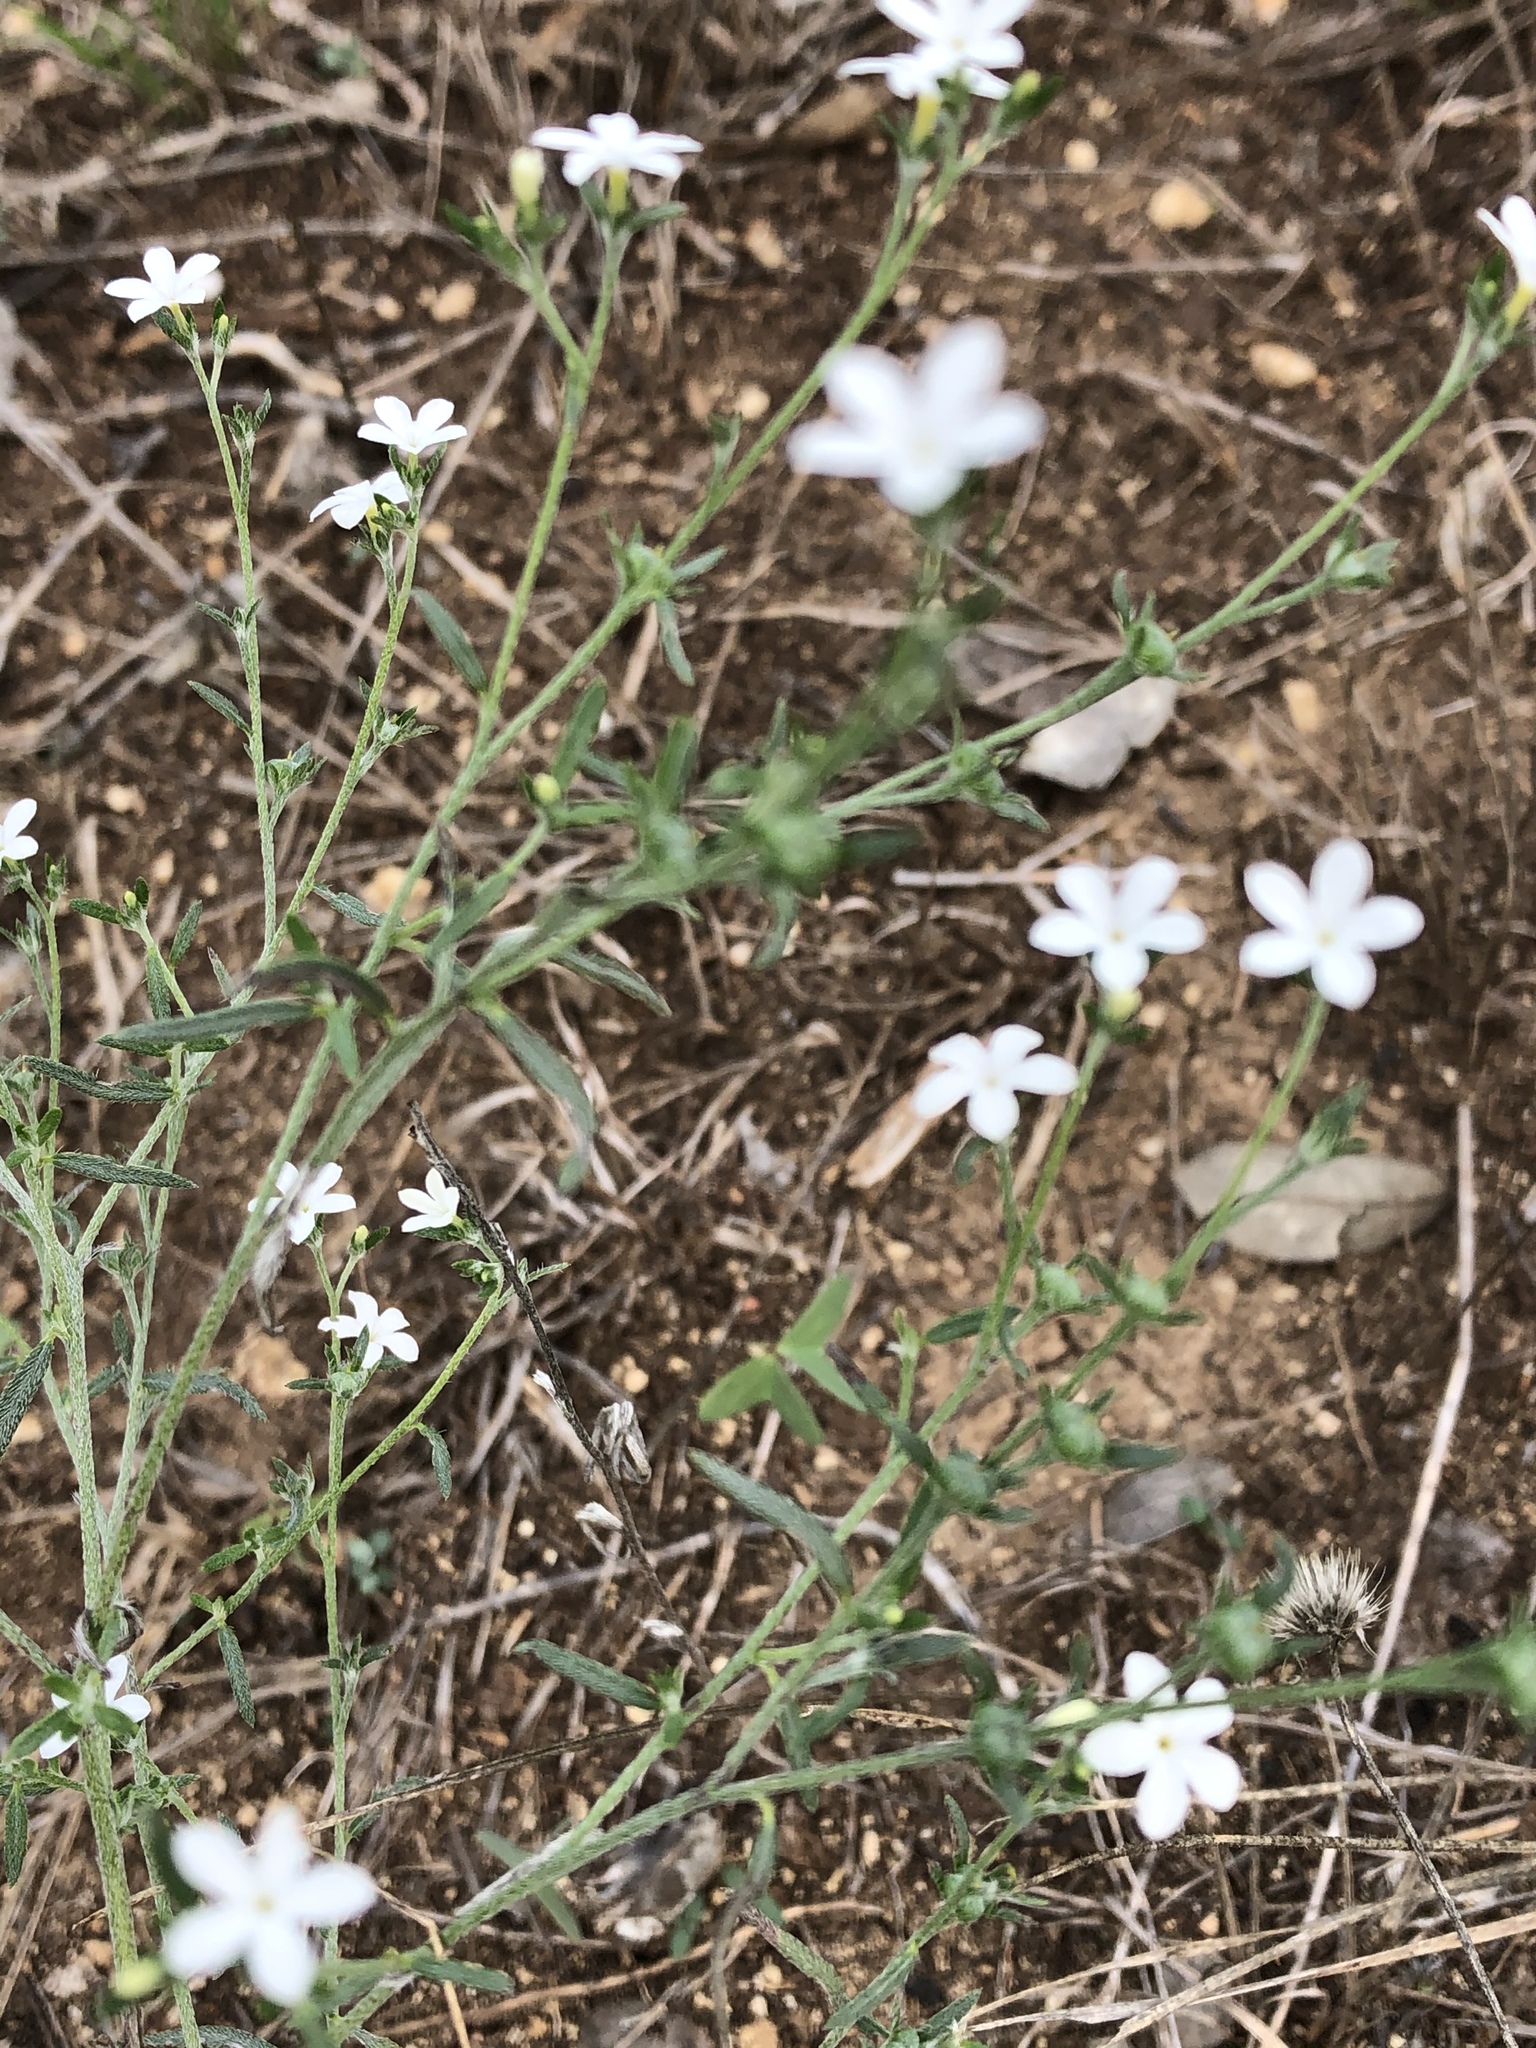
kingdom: Plantae
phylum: Tracheophyta
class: Magnoliopsida
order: Boraginales
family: Heliotropiaceae
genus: Euploca
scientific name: Euploca tenella
